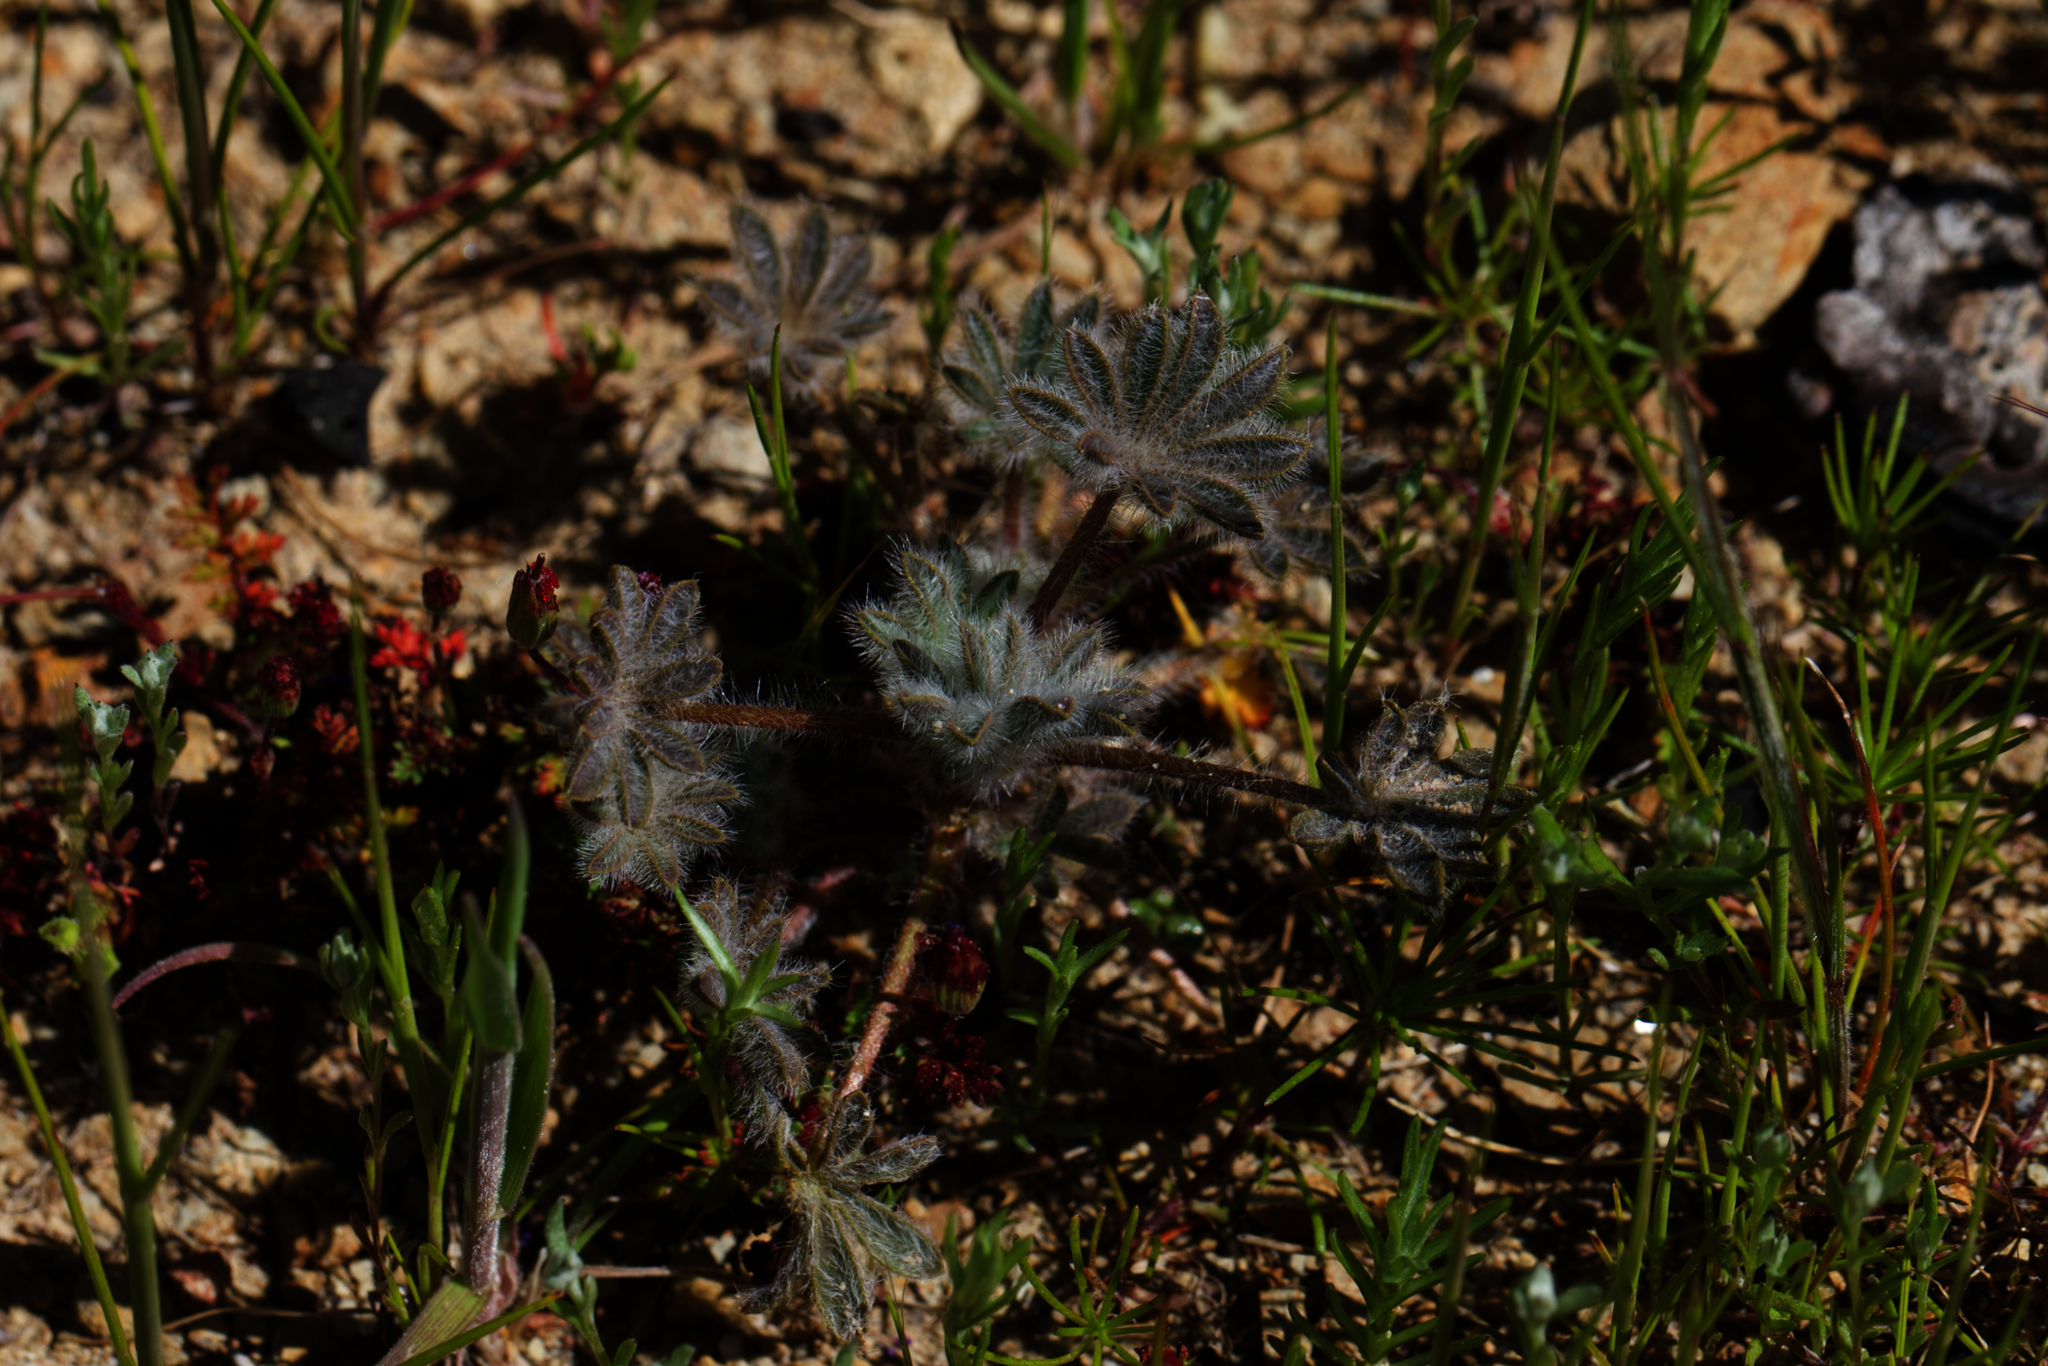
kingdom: Plantae
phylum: Tracheophyta
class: Magnoliopsida
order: Fabales
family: Fabaceae
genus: Lupinus
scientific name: Lupinus concinnus
